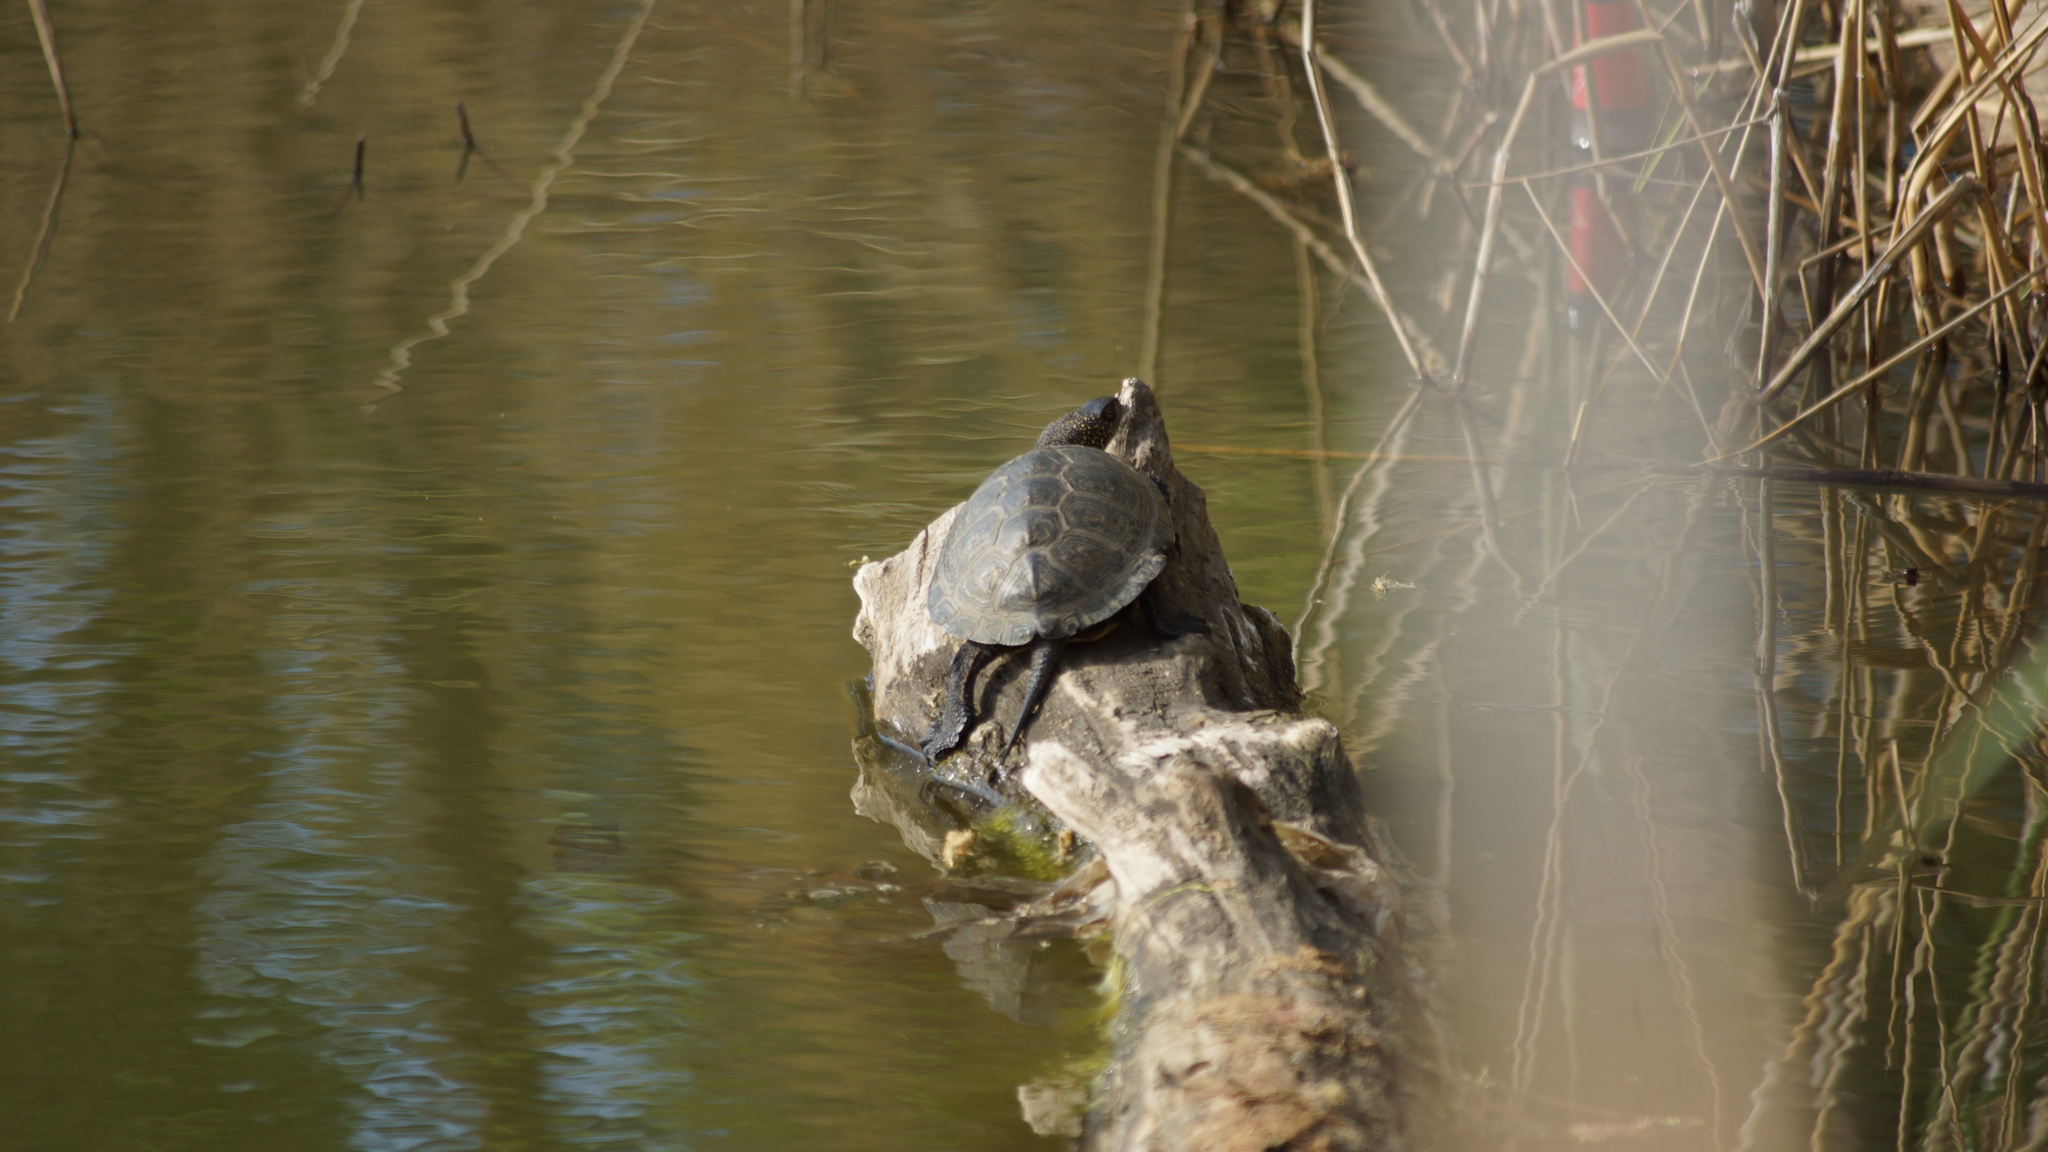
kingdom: Animalia
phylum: Chordata
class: Testudines
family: Emydidae
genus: Emys
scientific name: Emys orbicularis
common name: European pond turtle
